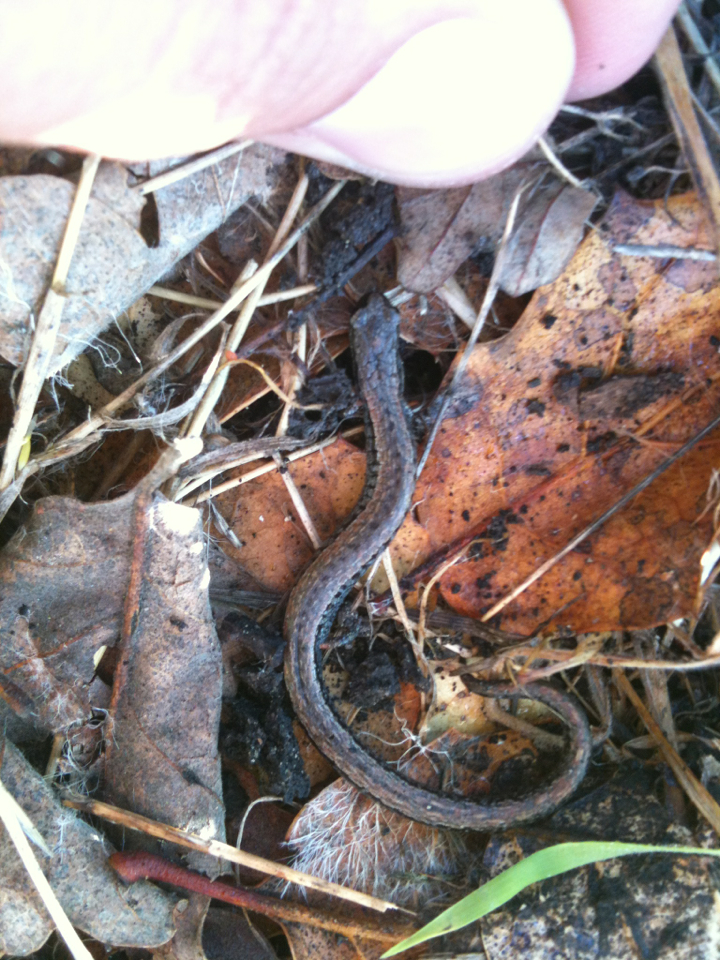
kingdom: Animalia
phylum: Chordata
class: Amphibia
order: Caudata
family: Plethodontidae
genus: Batrachoseps
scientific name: Batrachoseps attenuatus
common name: California slender salamander
